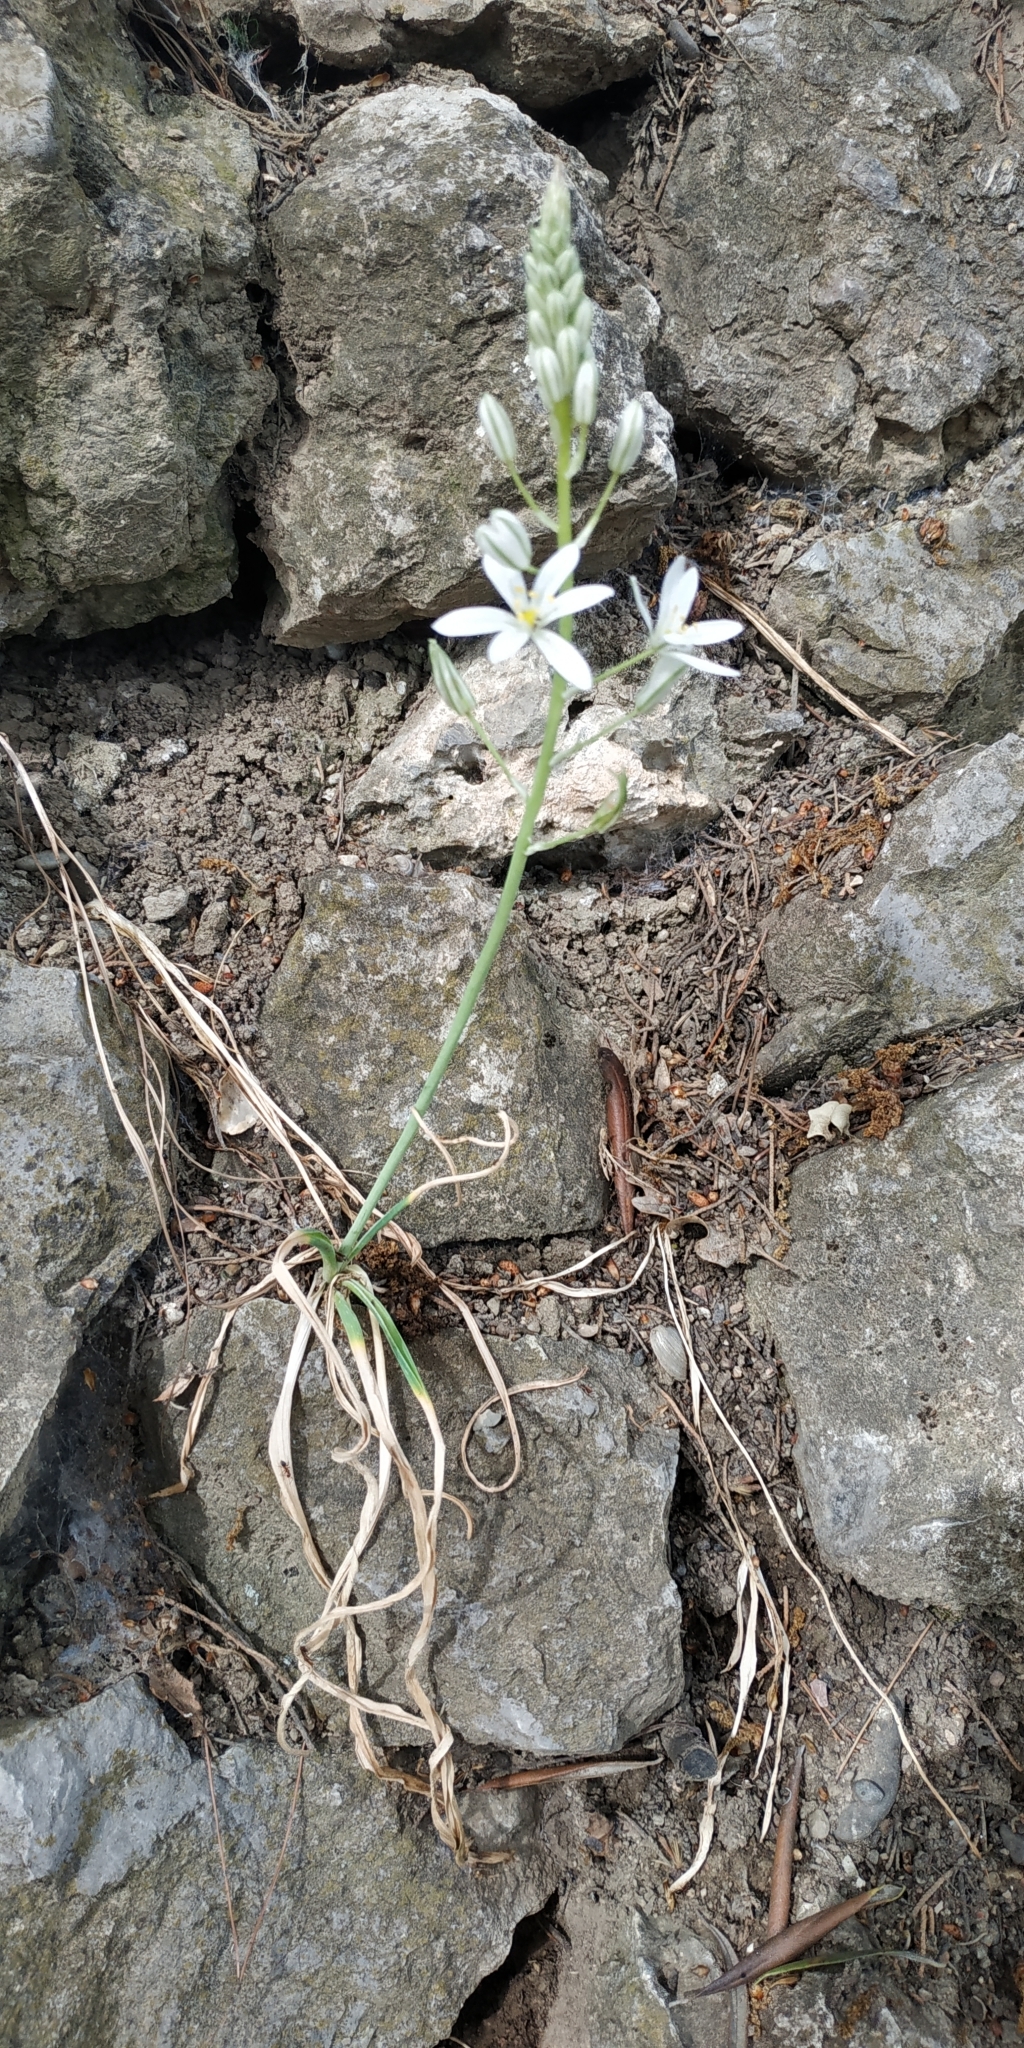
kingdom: Plantae
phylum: Tracheophyta
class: Liliopsida
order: Asparagales
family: Asparagaceae
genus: Ornithogalum
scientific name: Ornithogalum ponticum
